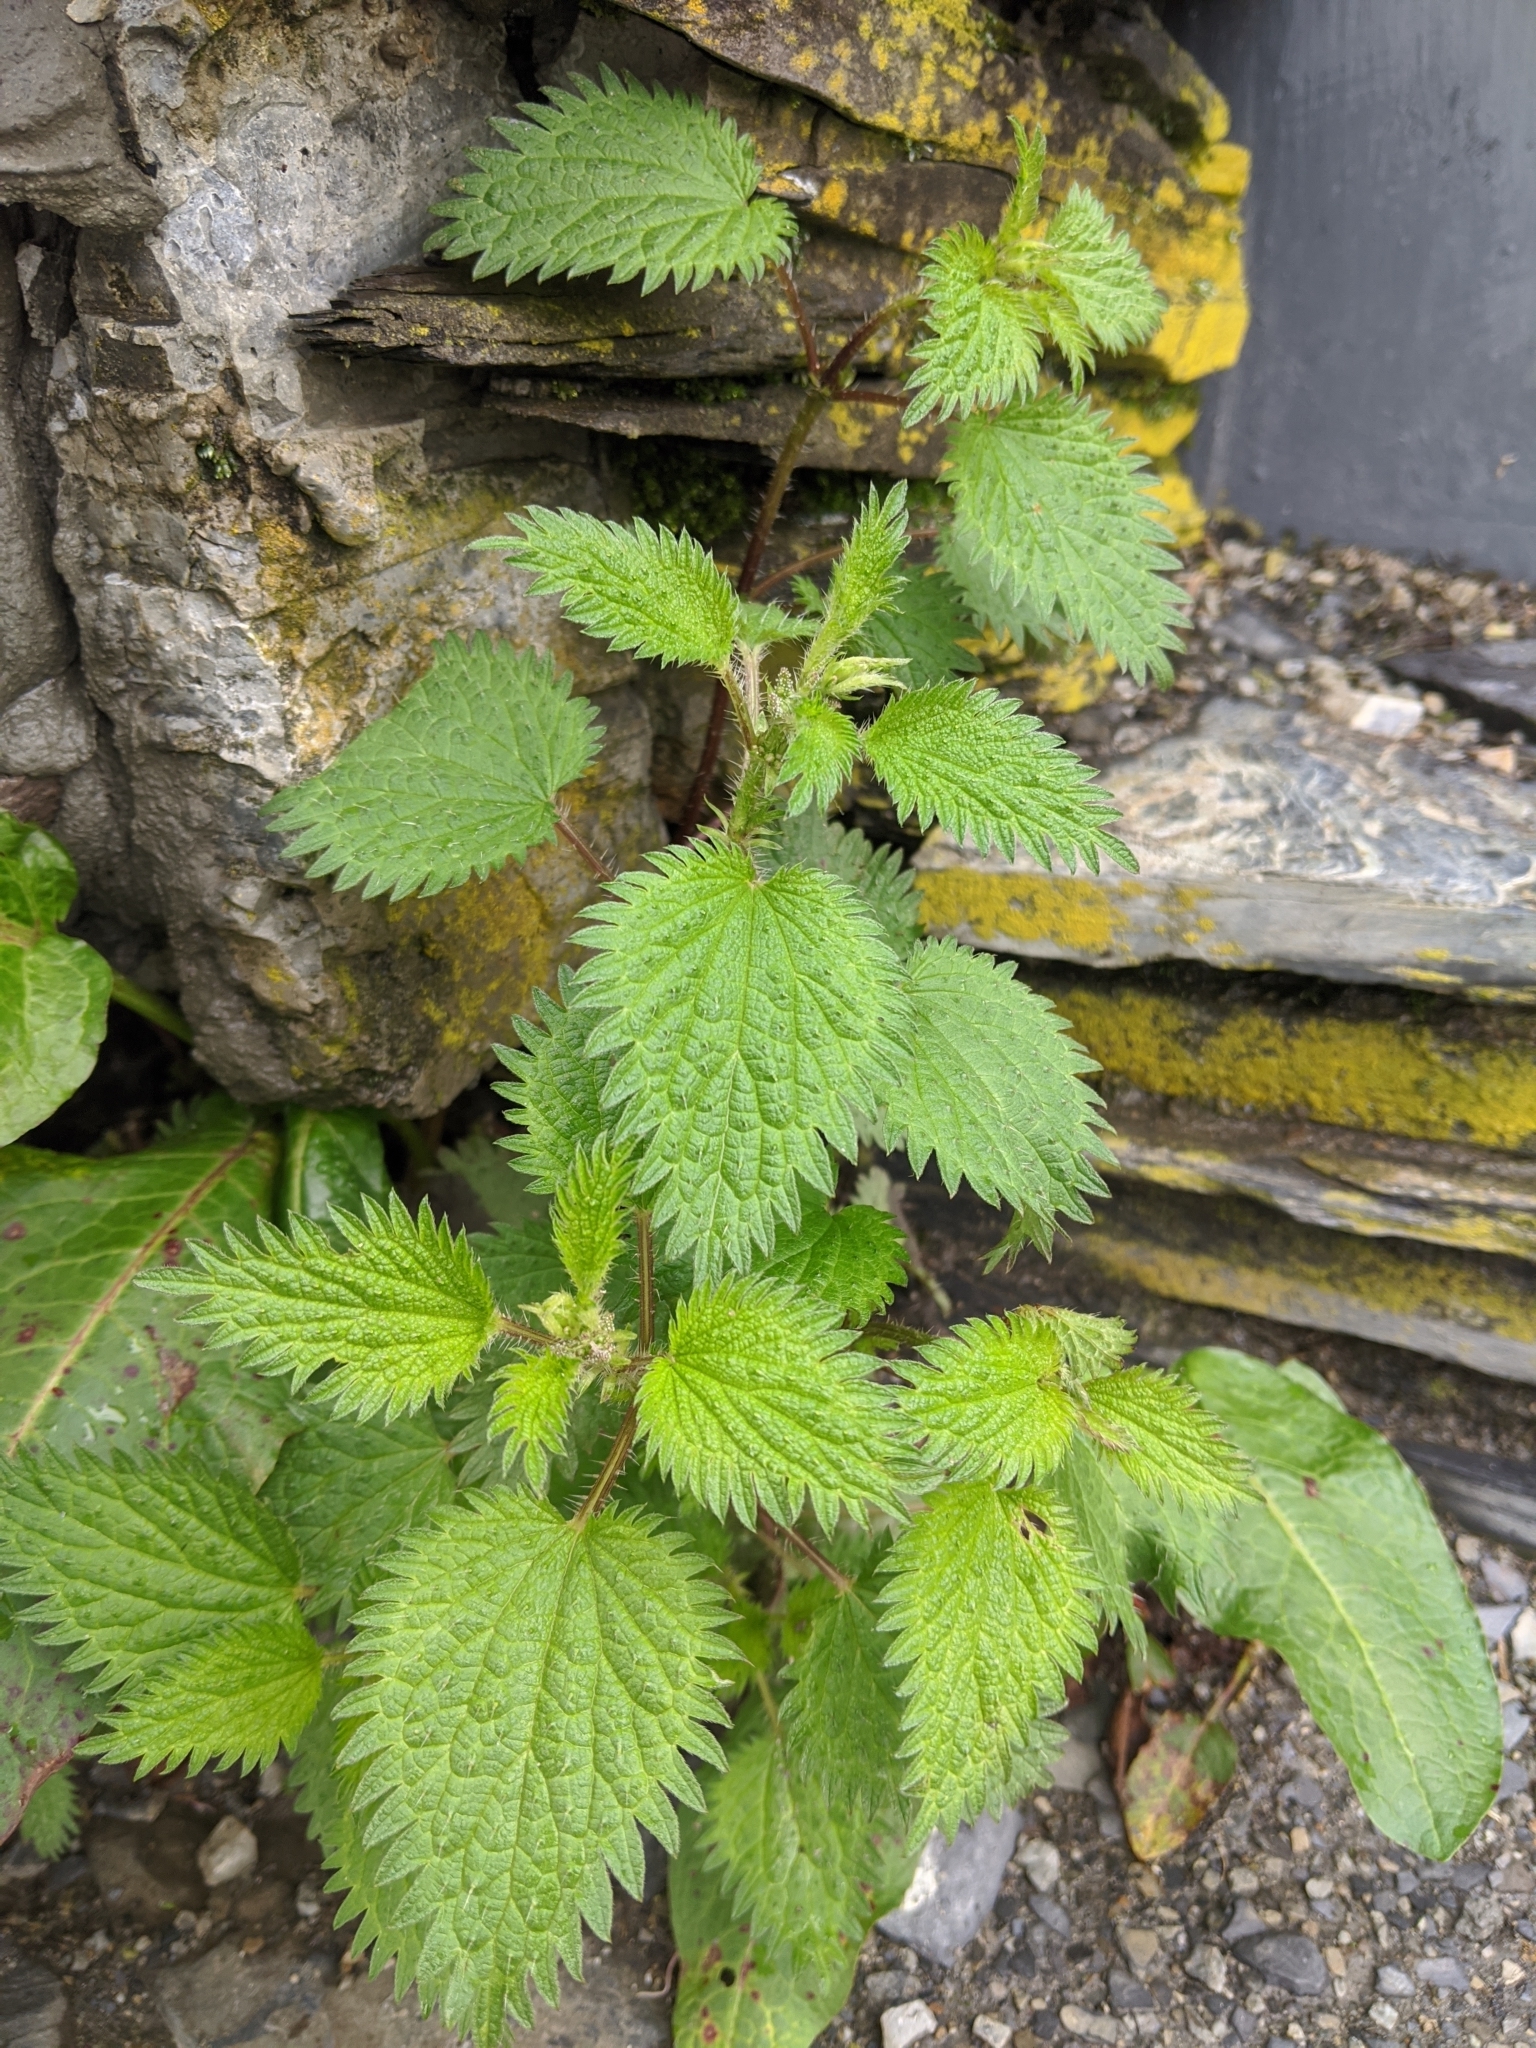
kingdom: Plantae
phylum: Tracheophyta
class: Magnoliopsida
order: Rosales
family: Urticaceae
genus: Urtica
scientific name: Urtica taiwaniana
